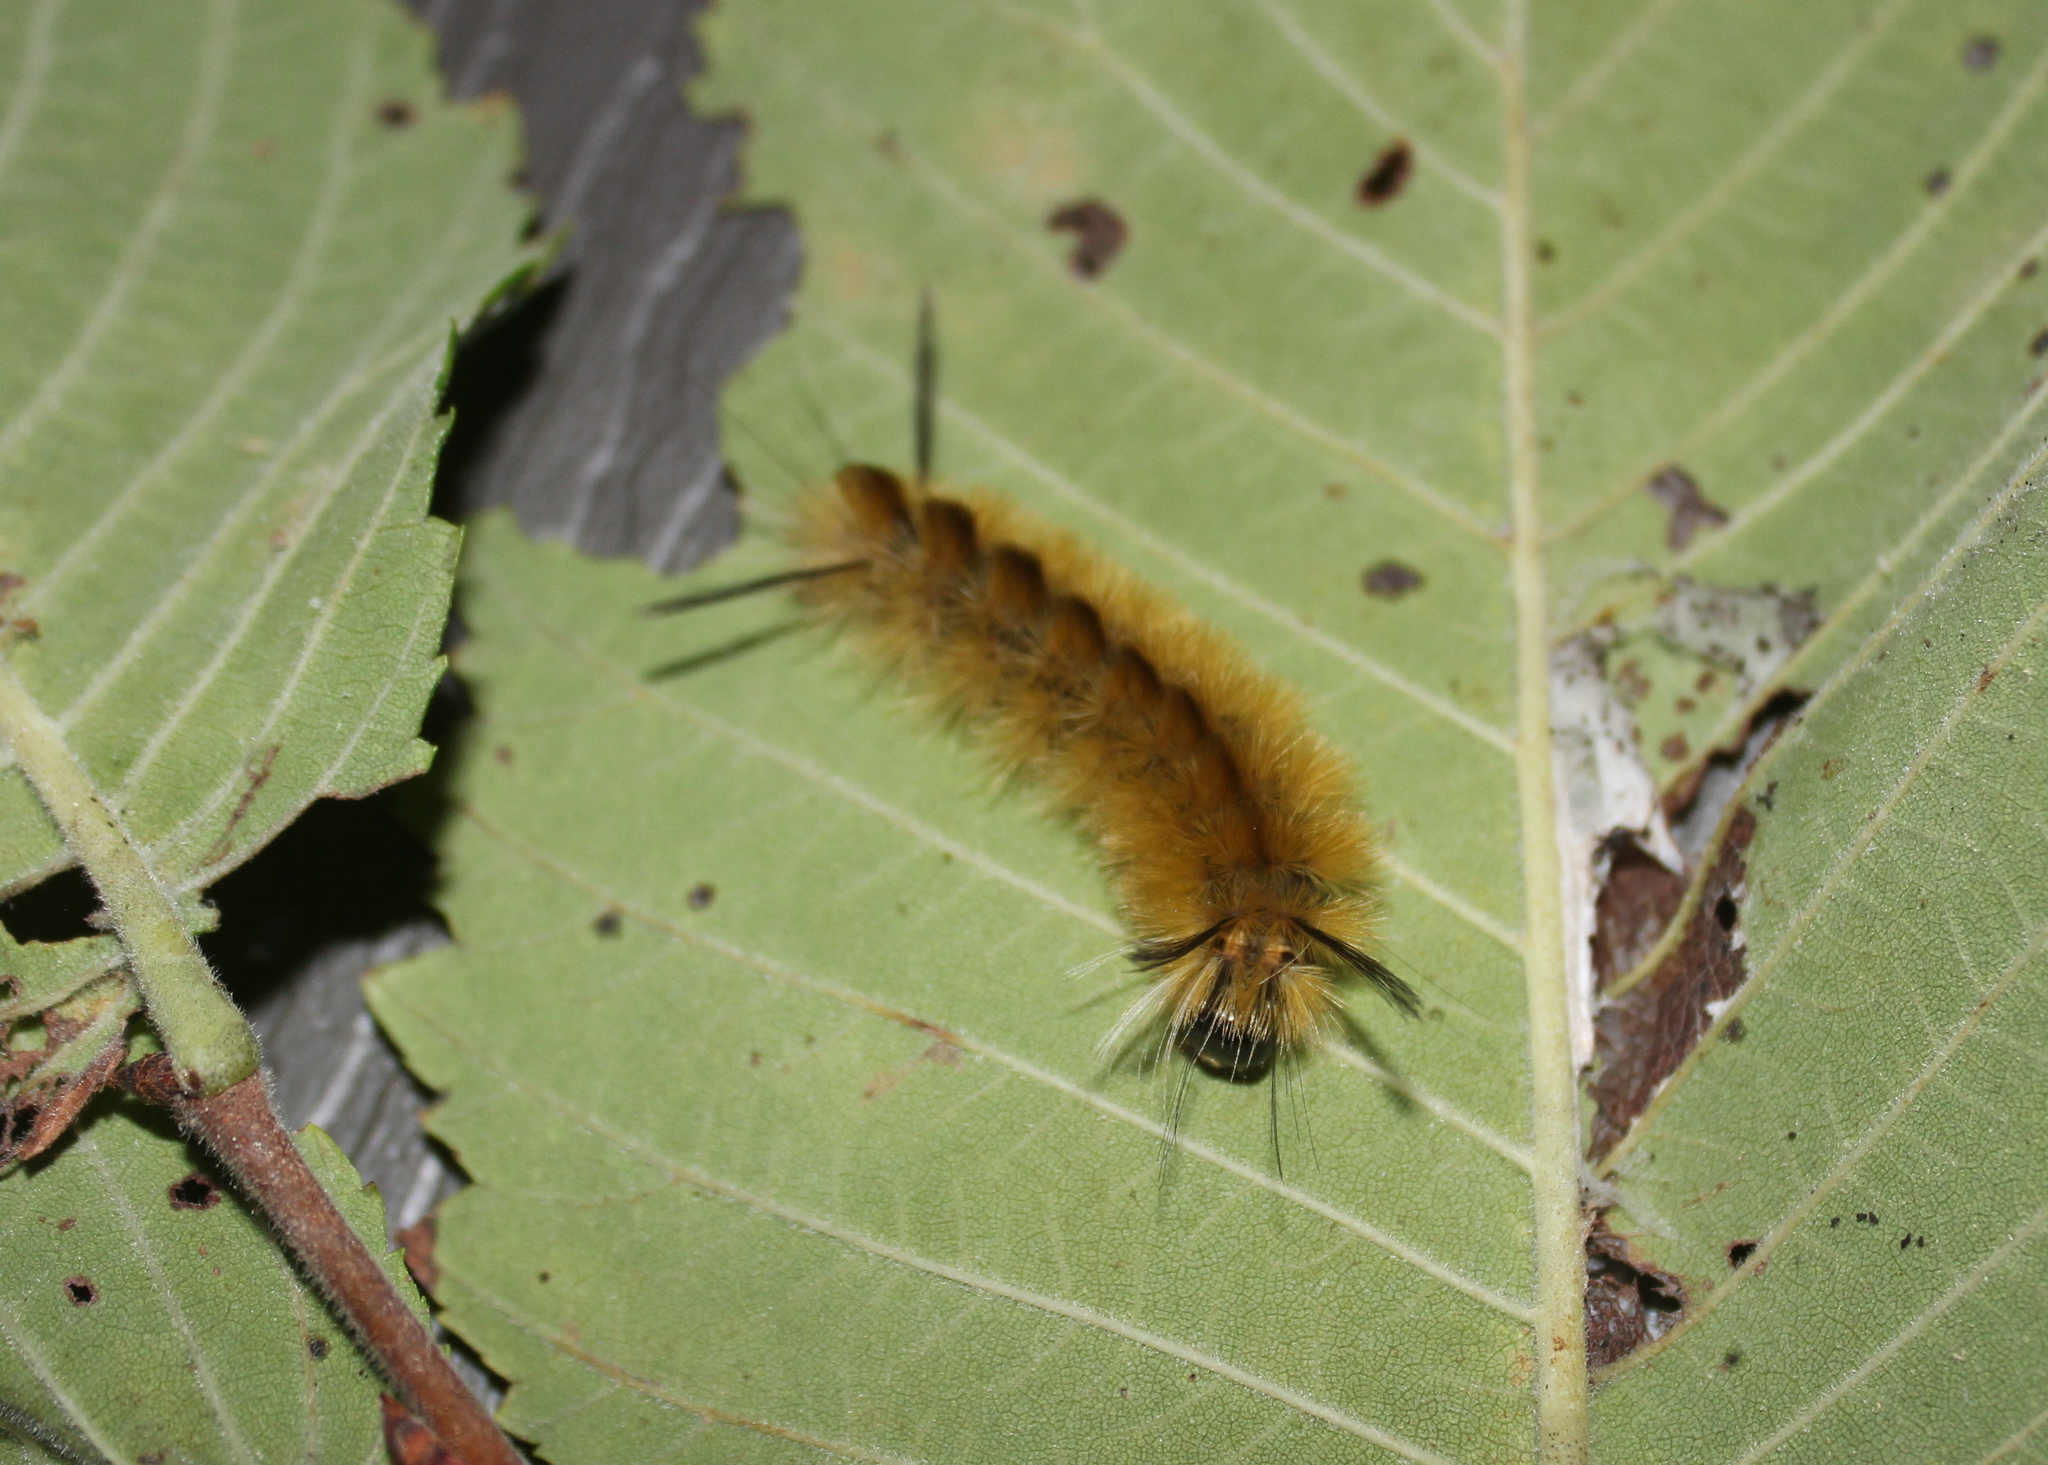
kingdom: Animalia
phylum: Arthropoda
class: Insecta
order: Lepidoptera
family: Erebidae
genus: Halysidota
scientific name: Halysidota tessellaris
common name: Banded tussock moth
